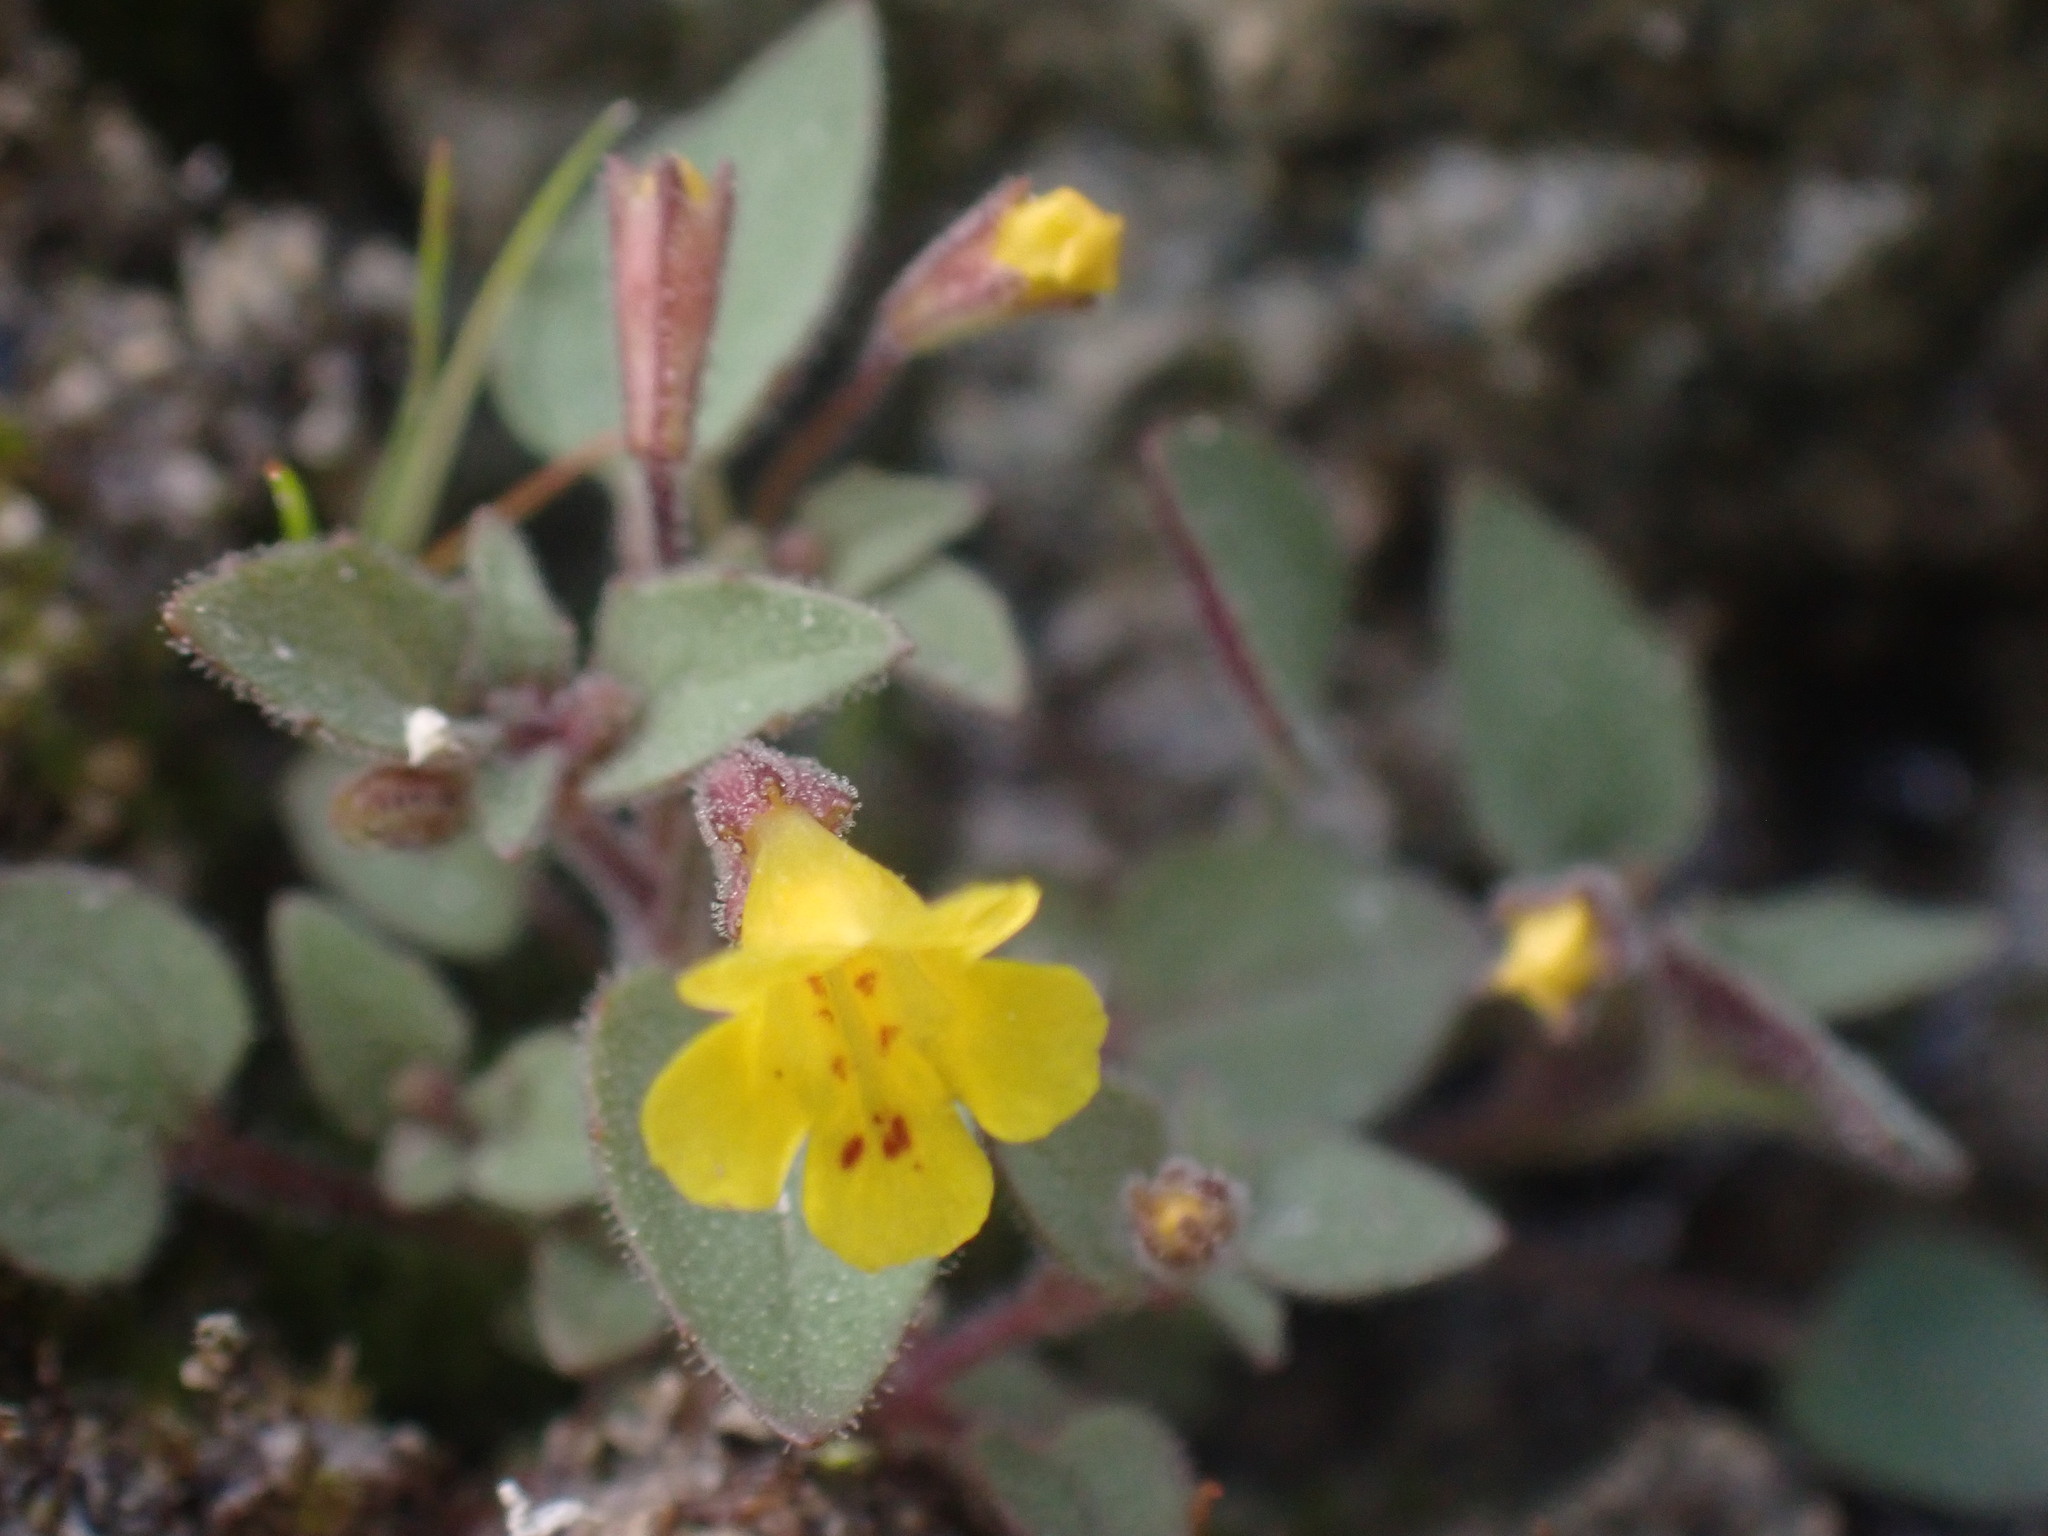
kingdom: Plantae
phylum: Tracheophyta
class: Magnoliopsida
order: Lamiales
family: Phrymaceae
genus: Erythranthe
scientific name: Erythranthe patula
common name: Stalk-leaved monkeyflower
